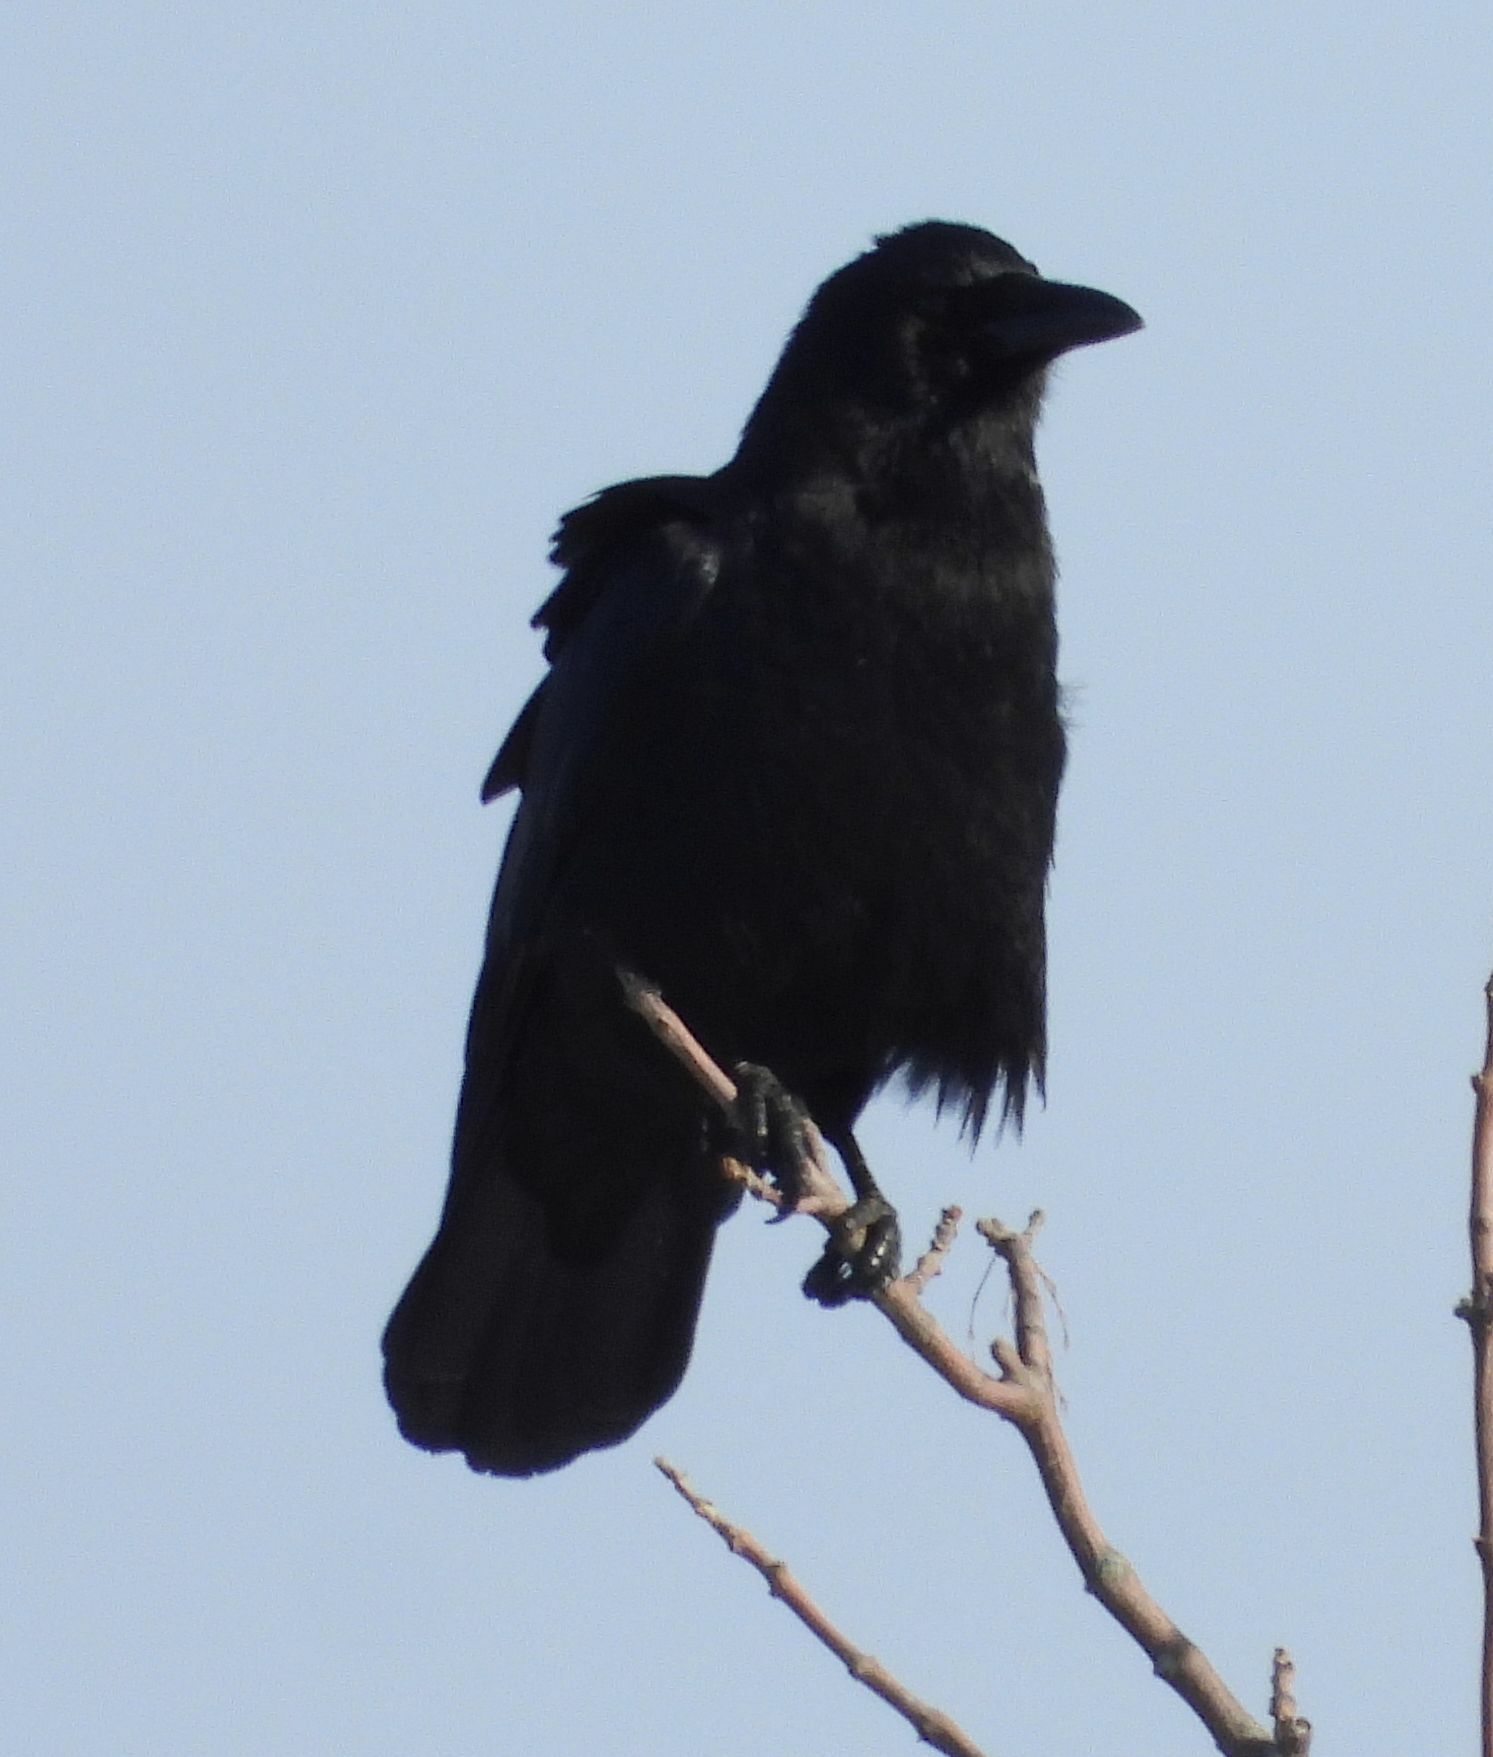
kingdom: Animalia
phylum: Chordata
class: Aves
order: Passeriformes
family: Corvidae
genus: Corvus
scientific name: Corvus corax
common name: Common raven
